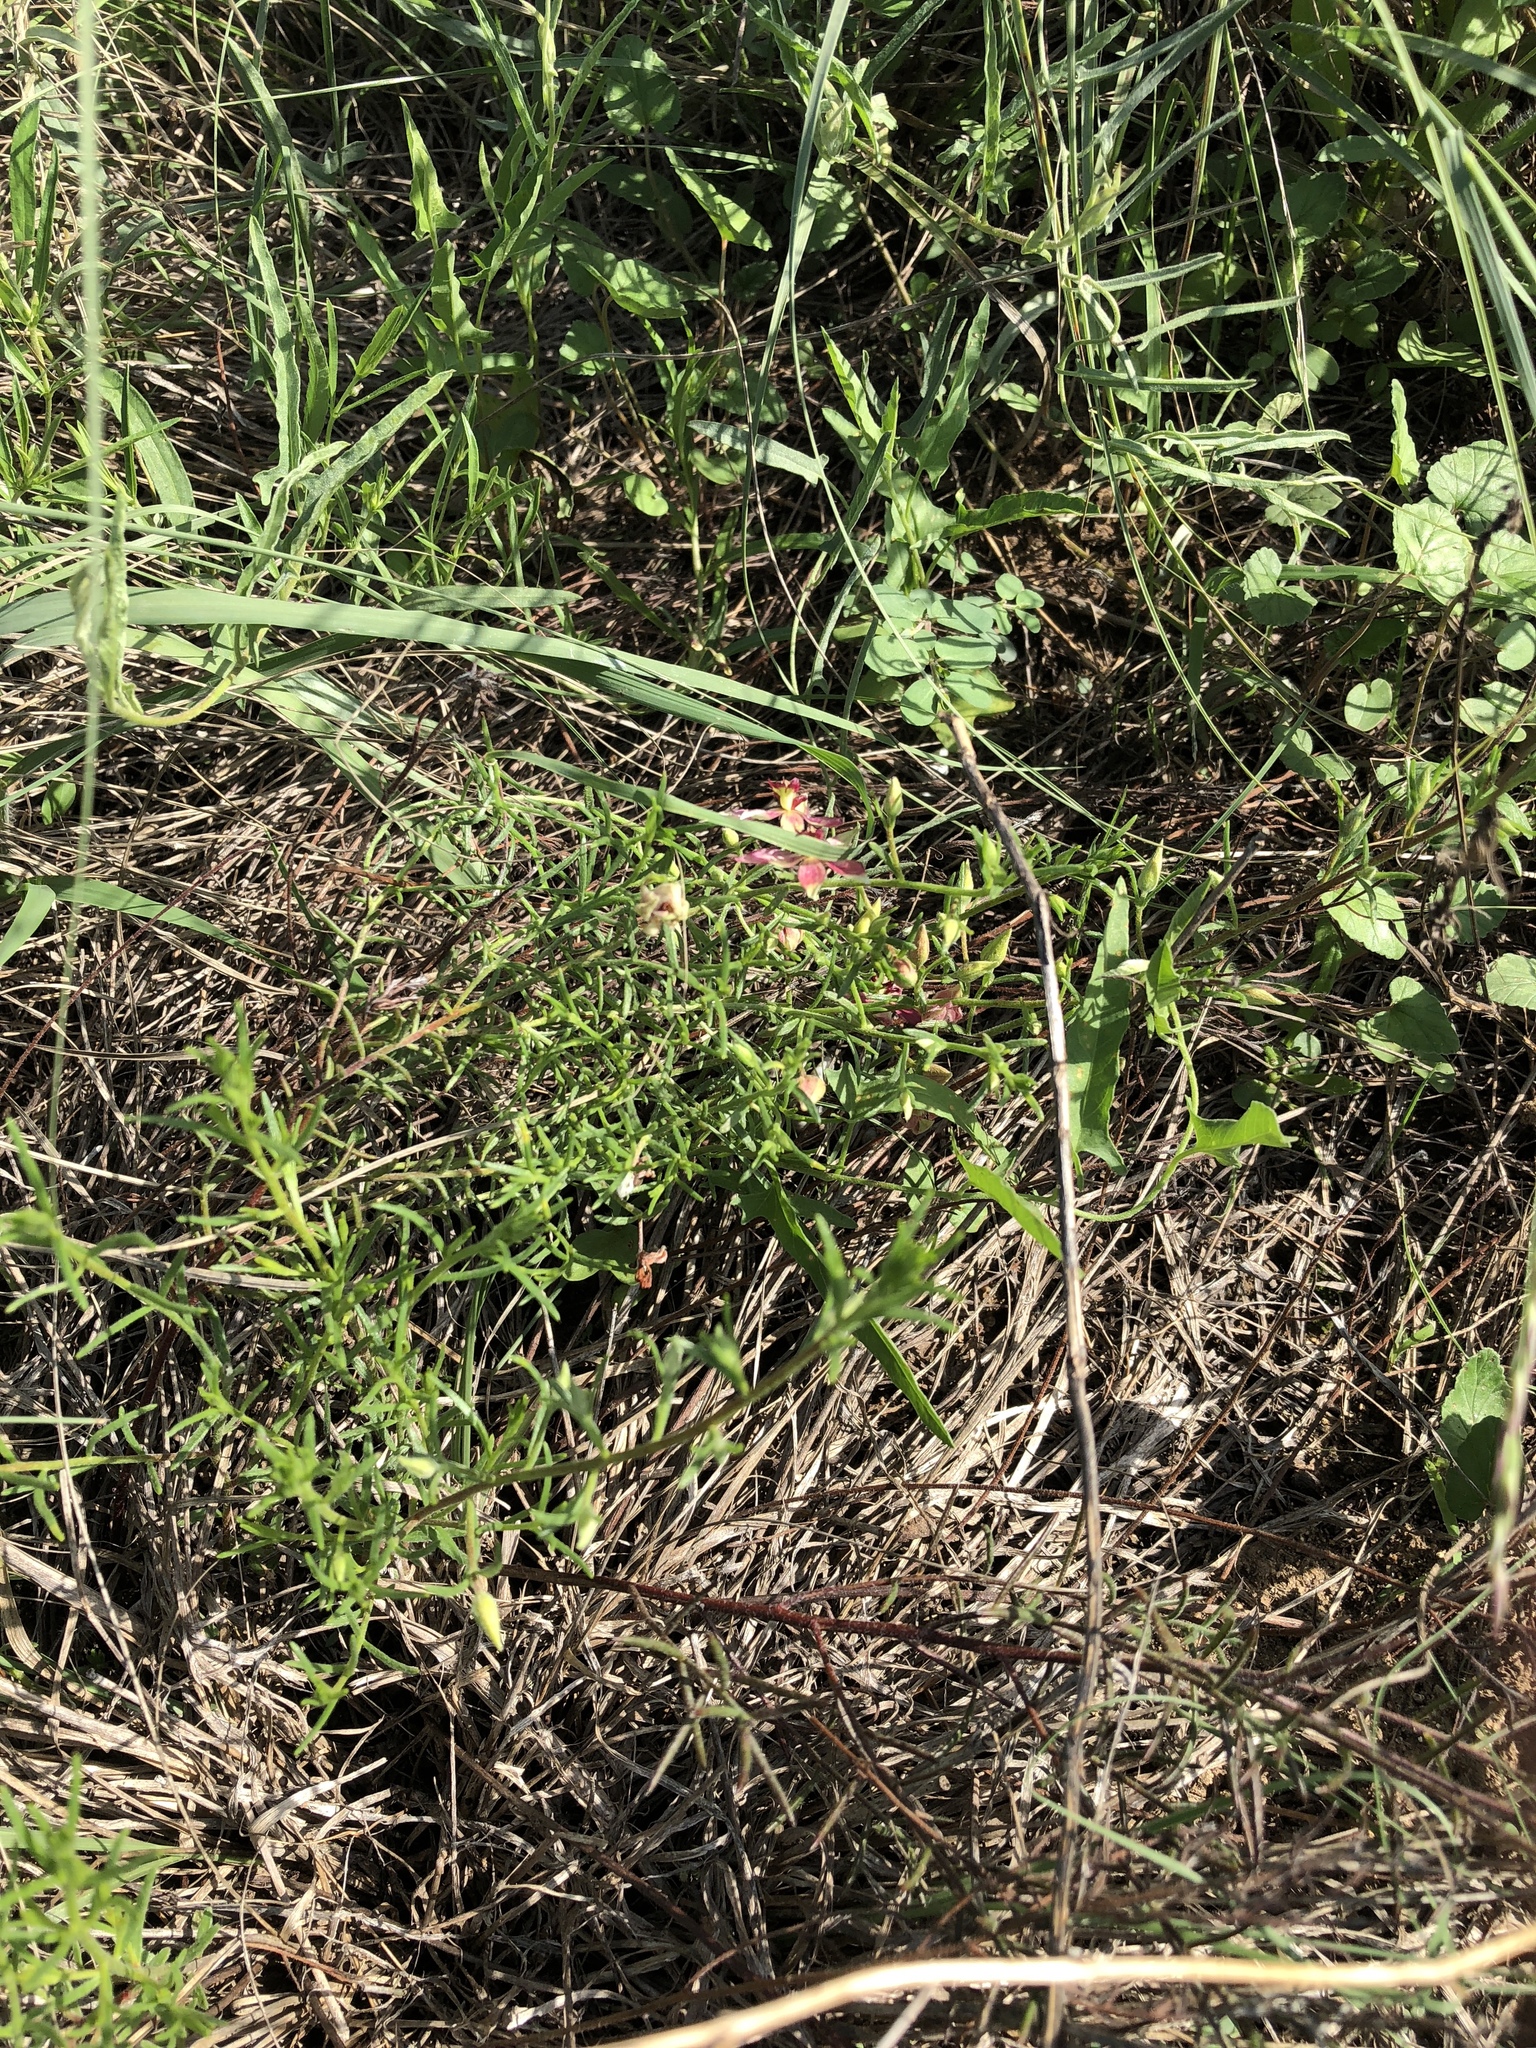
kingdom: Plantae
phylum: Tracheophyta
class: Magnoliopsida
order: Zygophyllales
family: Krameriaceae
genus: Krameria
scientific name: Krameria lanceolata
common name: Ratany
